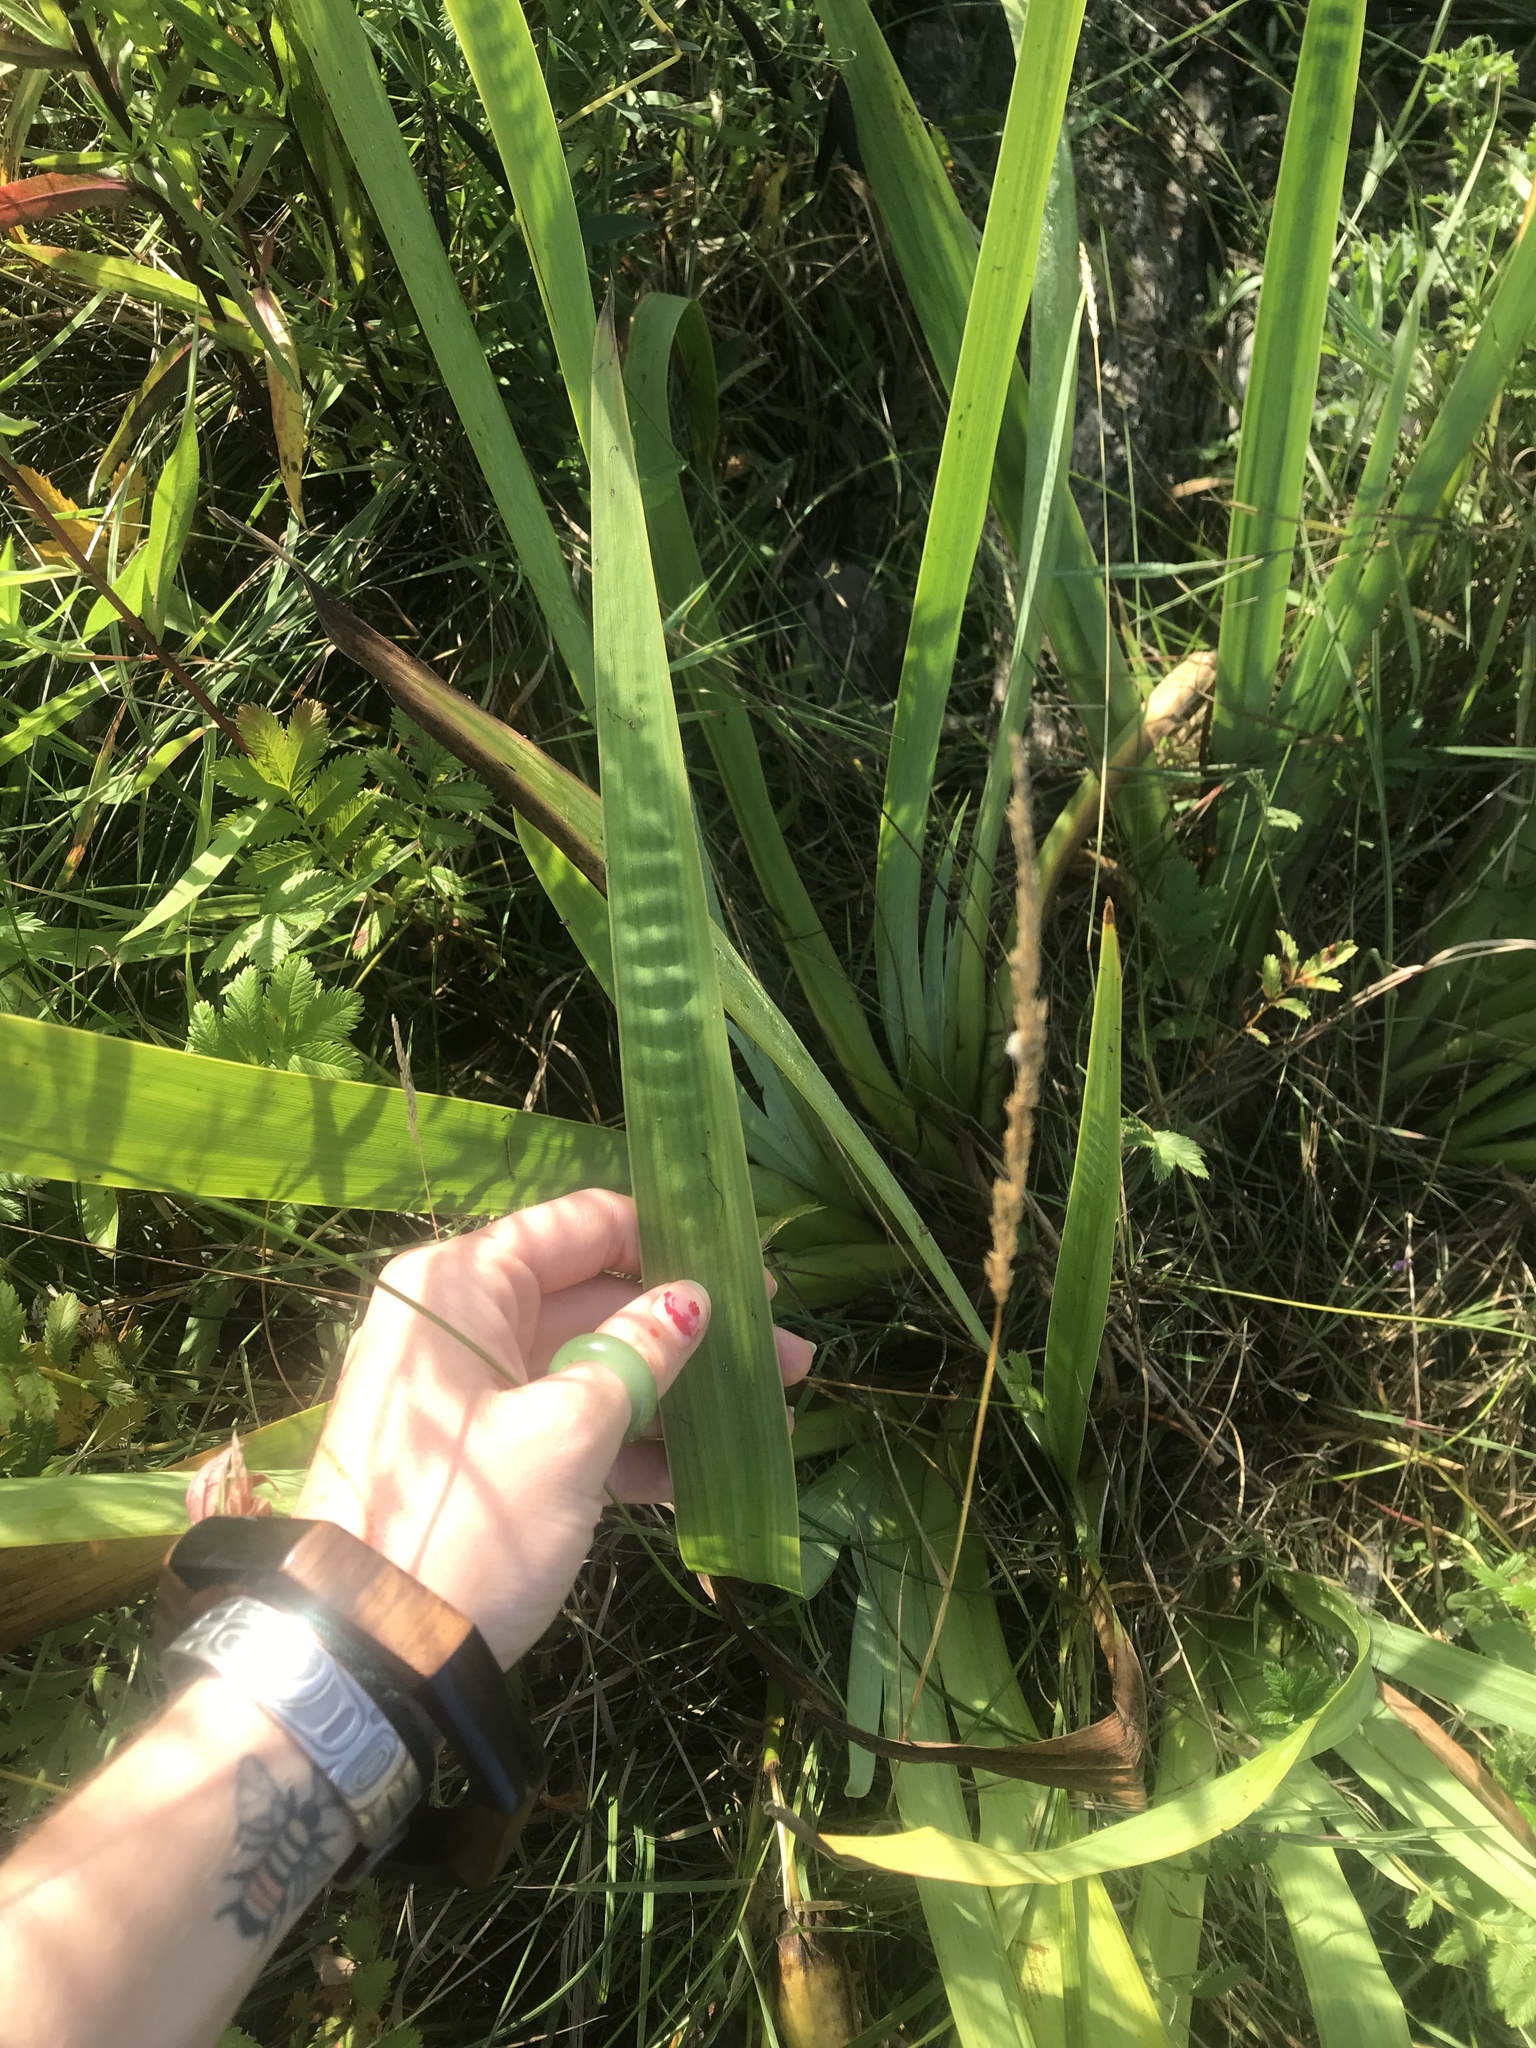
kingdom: Plantae
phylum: Tracheophyta
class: Liliopsida
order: Asparagales
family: Iridaceae
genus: Iris
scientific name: Iris pseudacorus
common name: Yellow flag
